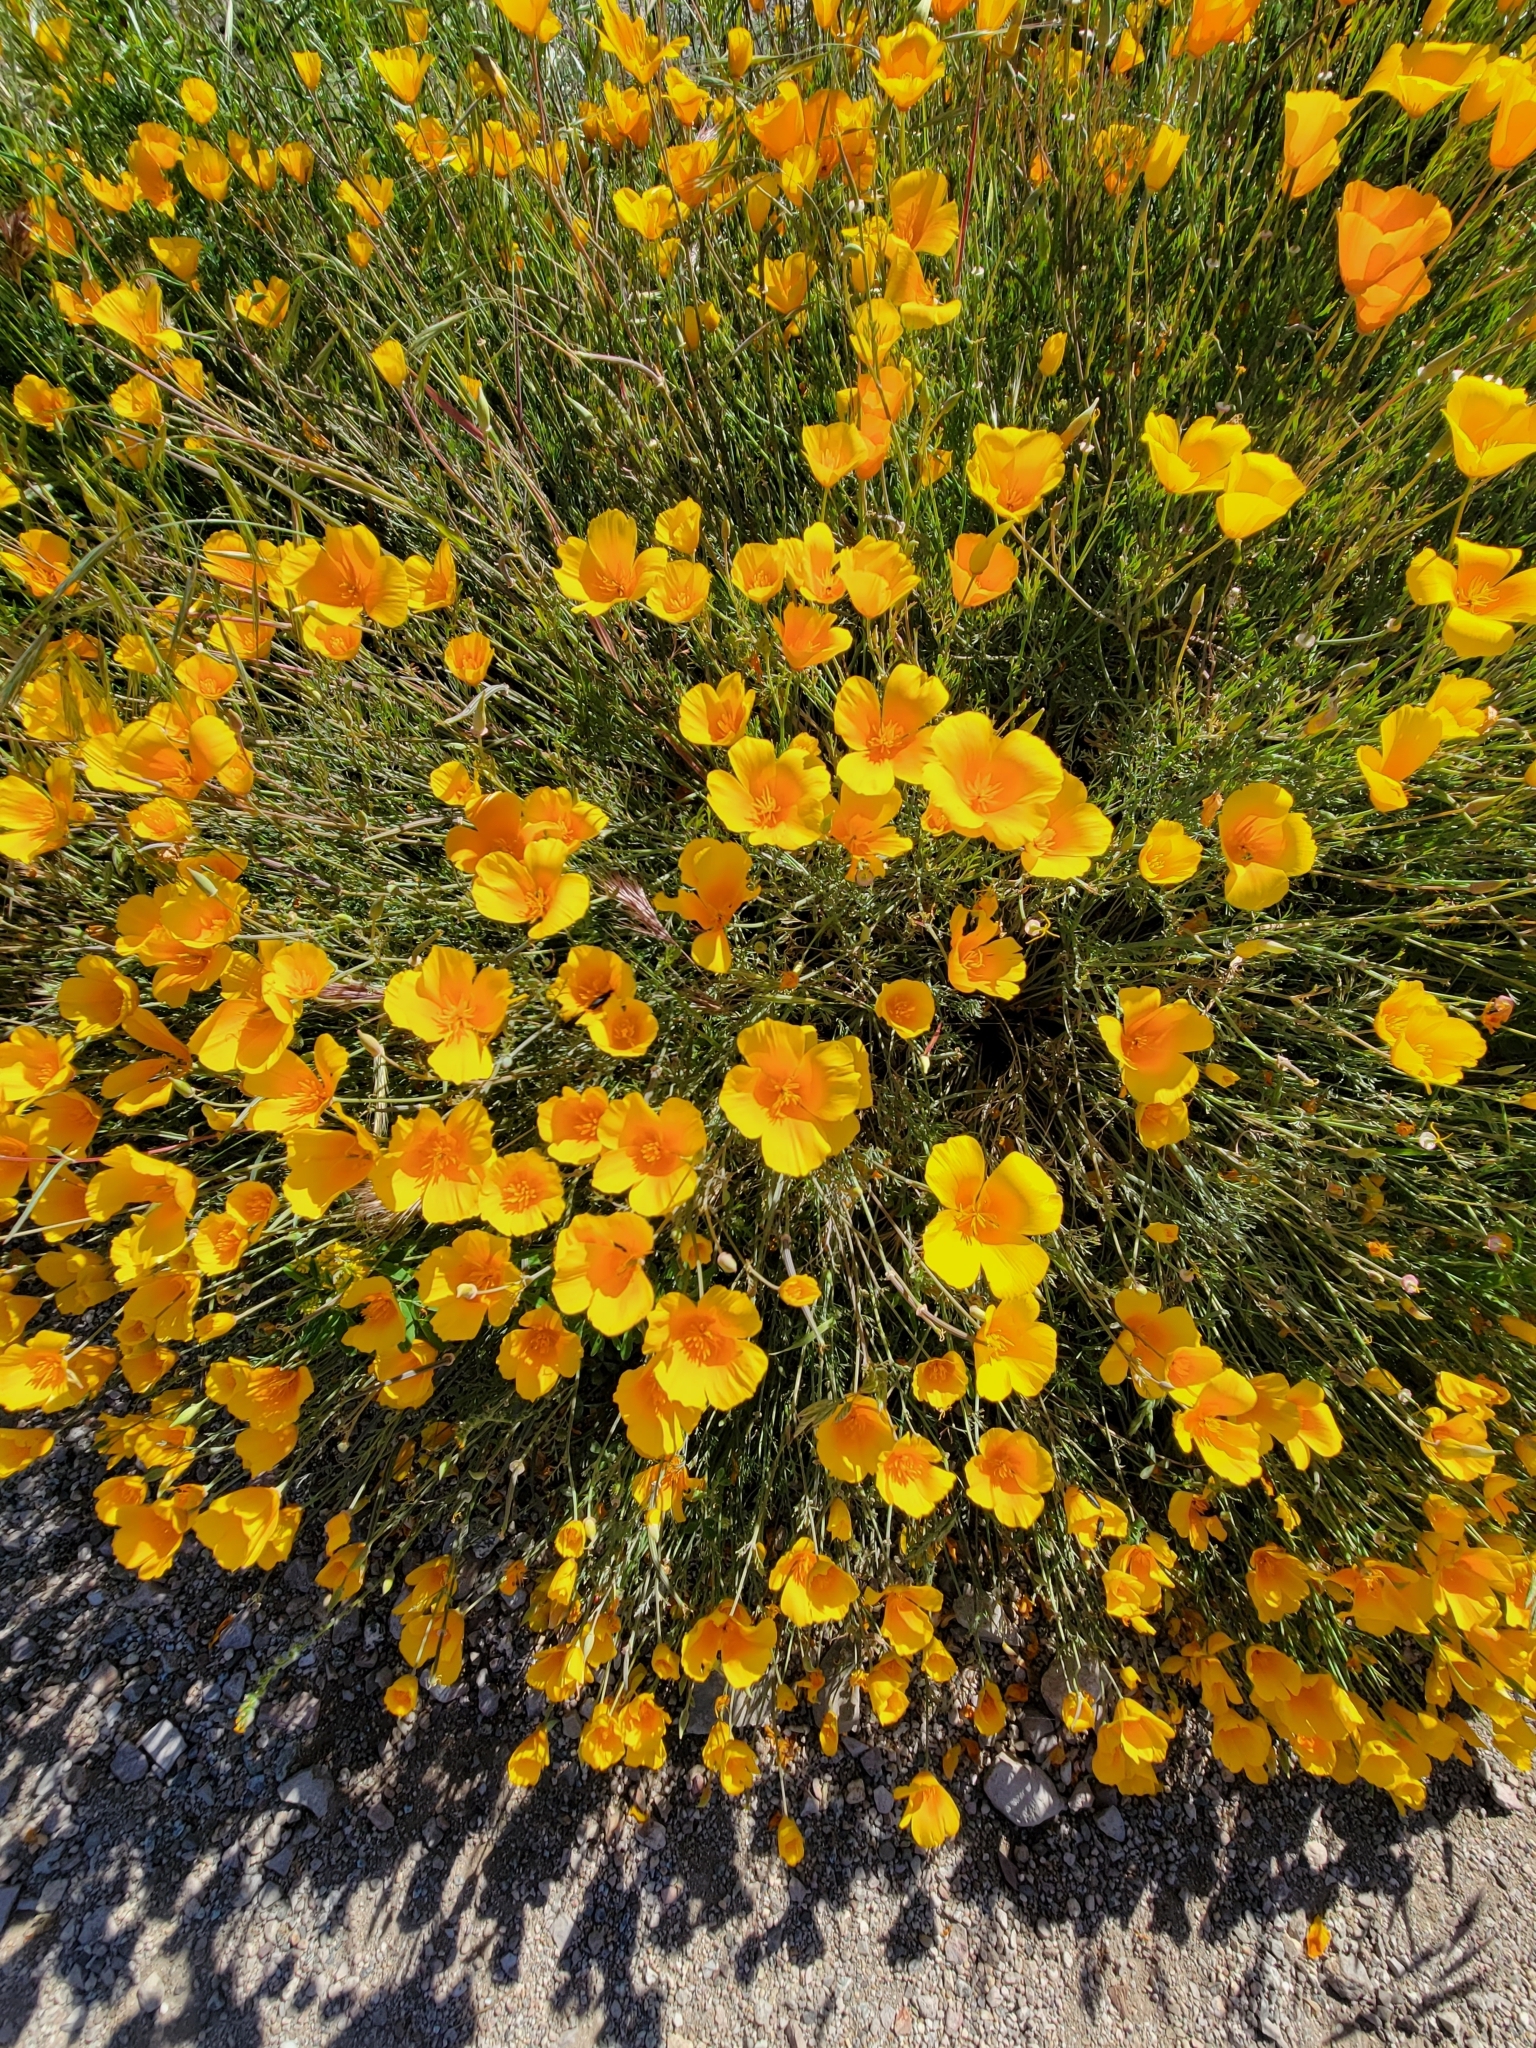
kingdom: Plantae
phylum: Tracheophyta
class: Magnoliopsida
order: Ranunculales
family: Papaveraceae
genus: Eschscholzia
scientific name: Eschscholzia californica
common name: California poppy
